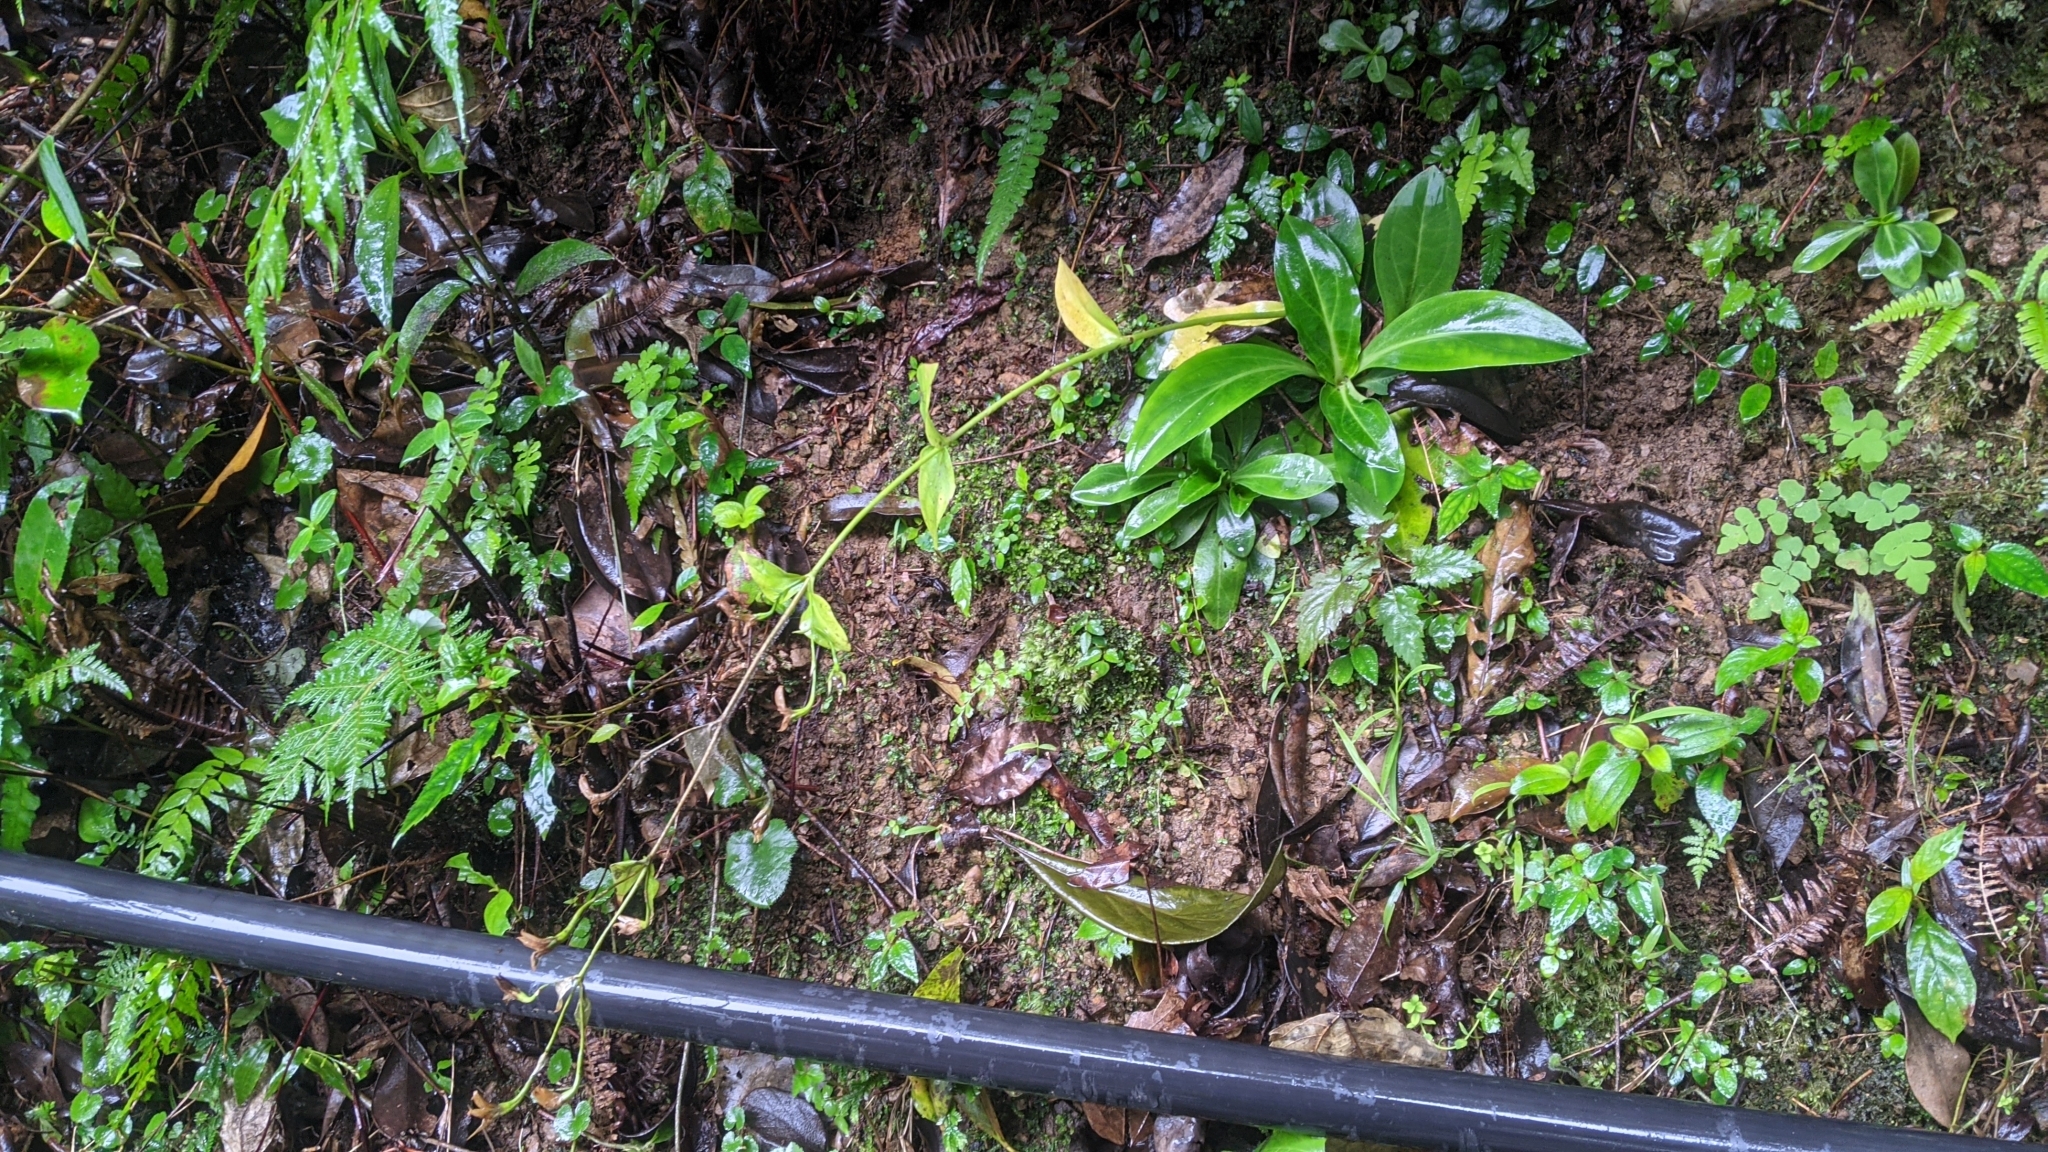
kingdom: Plantae
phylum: Tracheophyta
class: Magnoliopsida
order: Gentianales
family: Gentianaceae
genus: Swertia
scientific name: Swertia shintenensis
